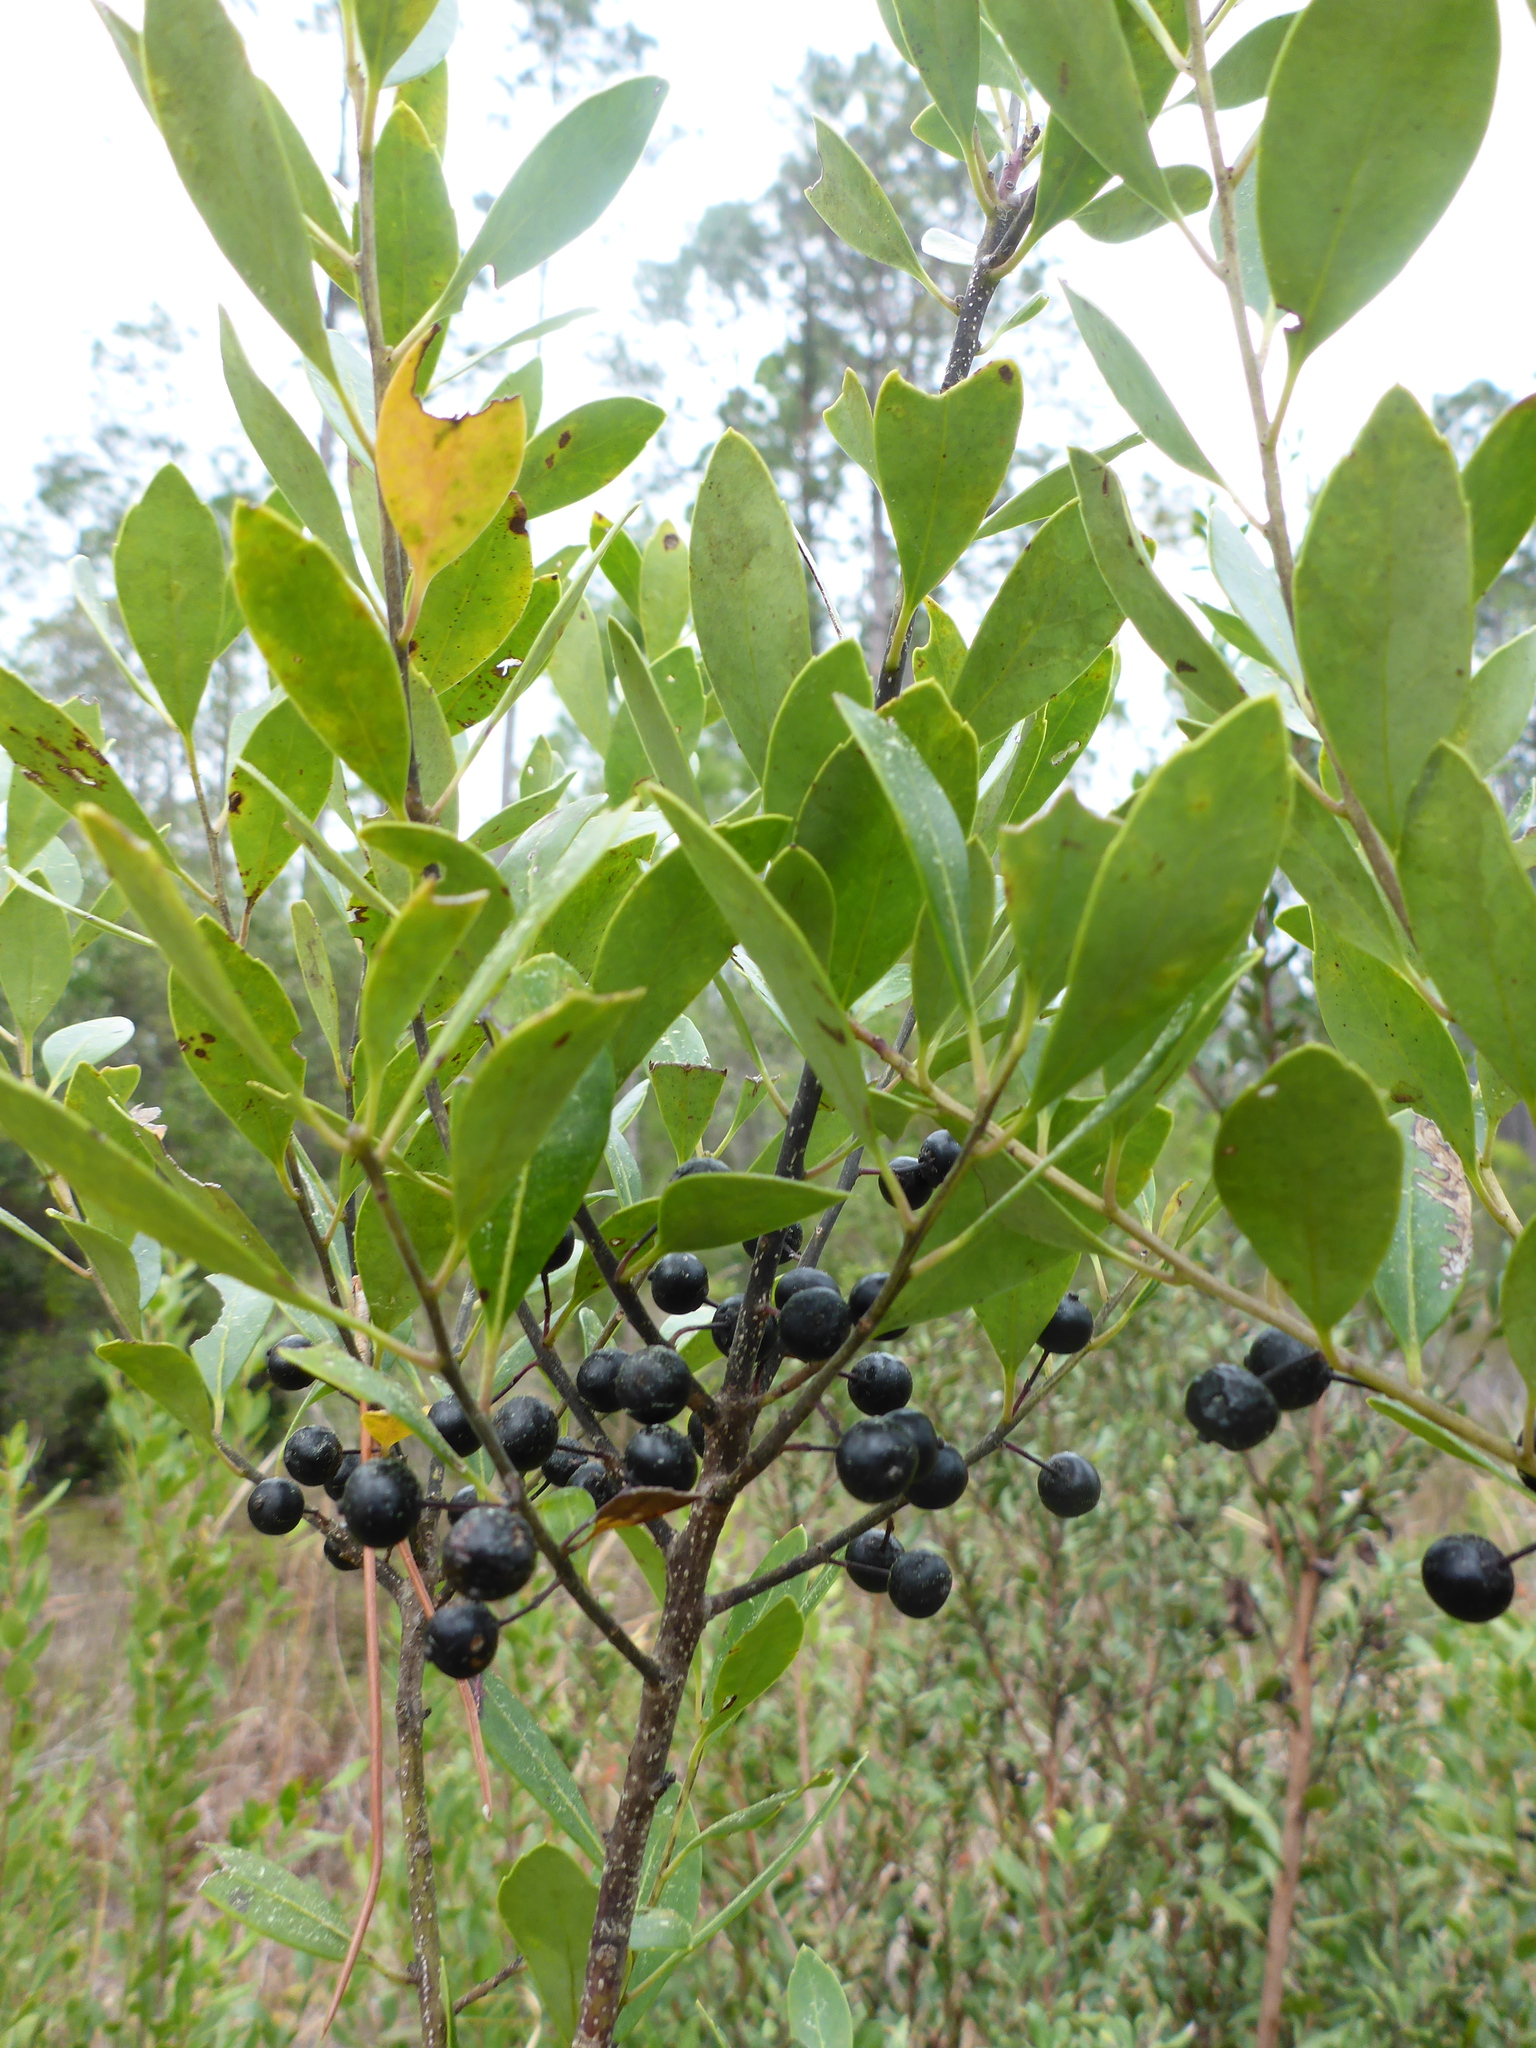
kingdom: Plantae
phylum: Tracheophyta
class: Magnoliopsida
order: Aquifoliales
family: Aquifoliaceae
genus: Ilex
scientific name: Ilex glabra
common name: Bitter gallberry
